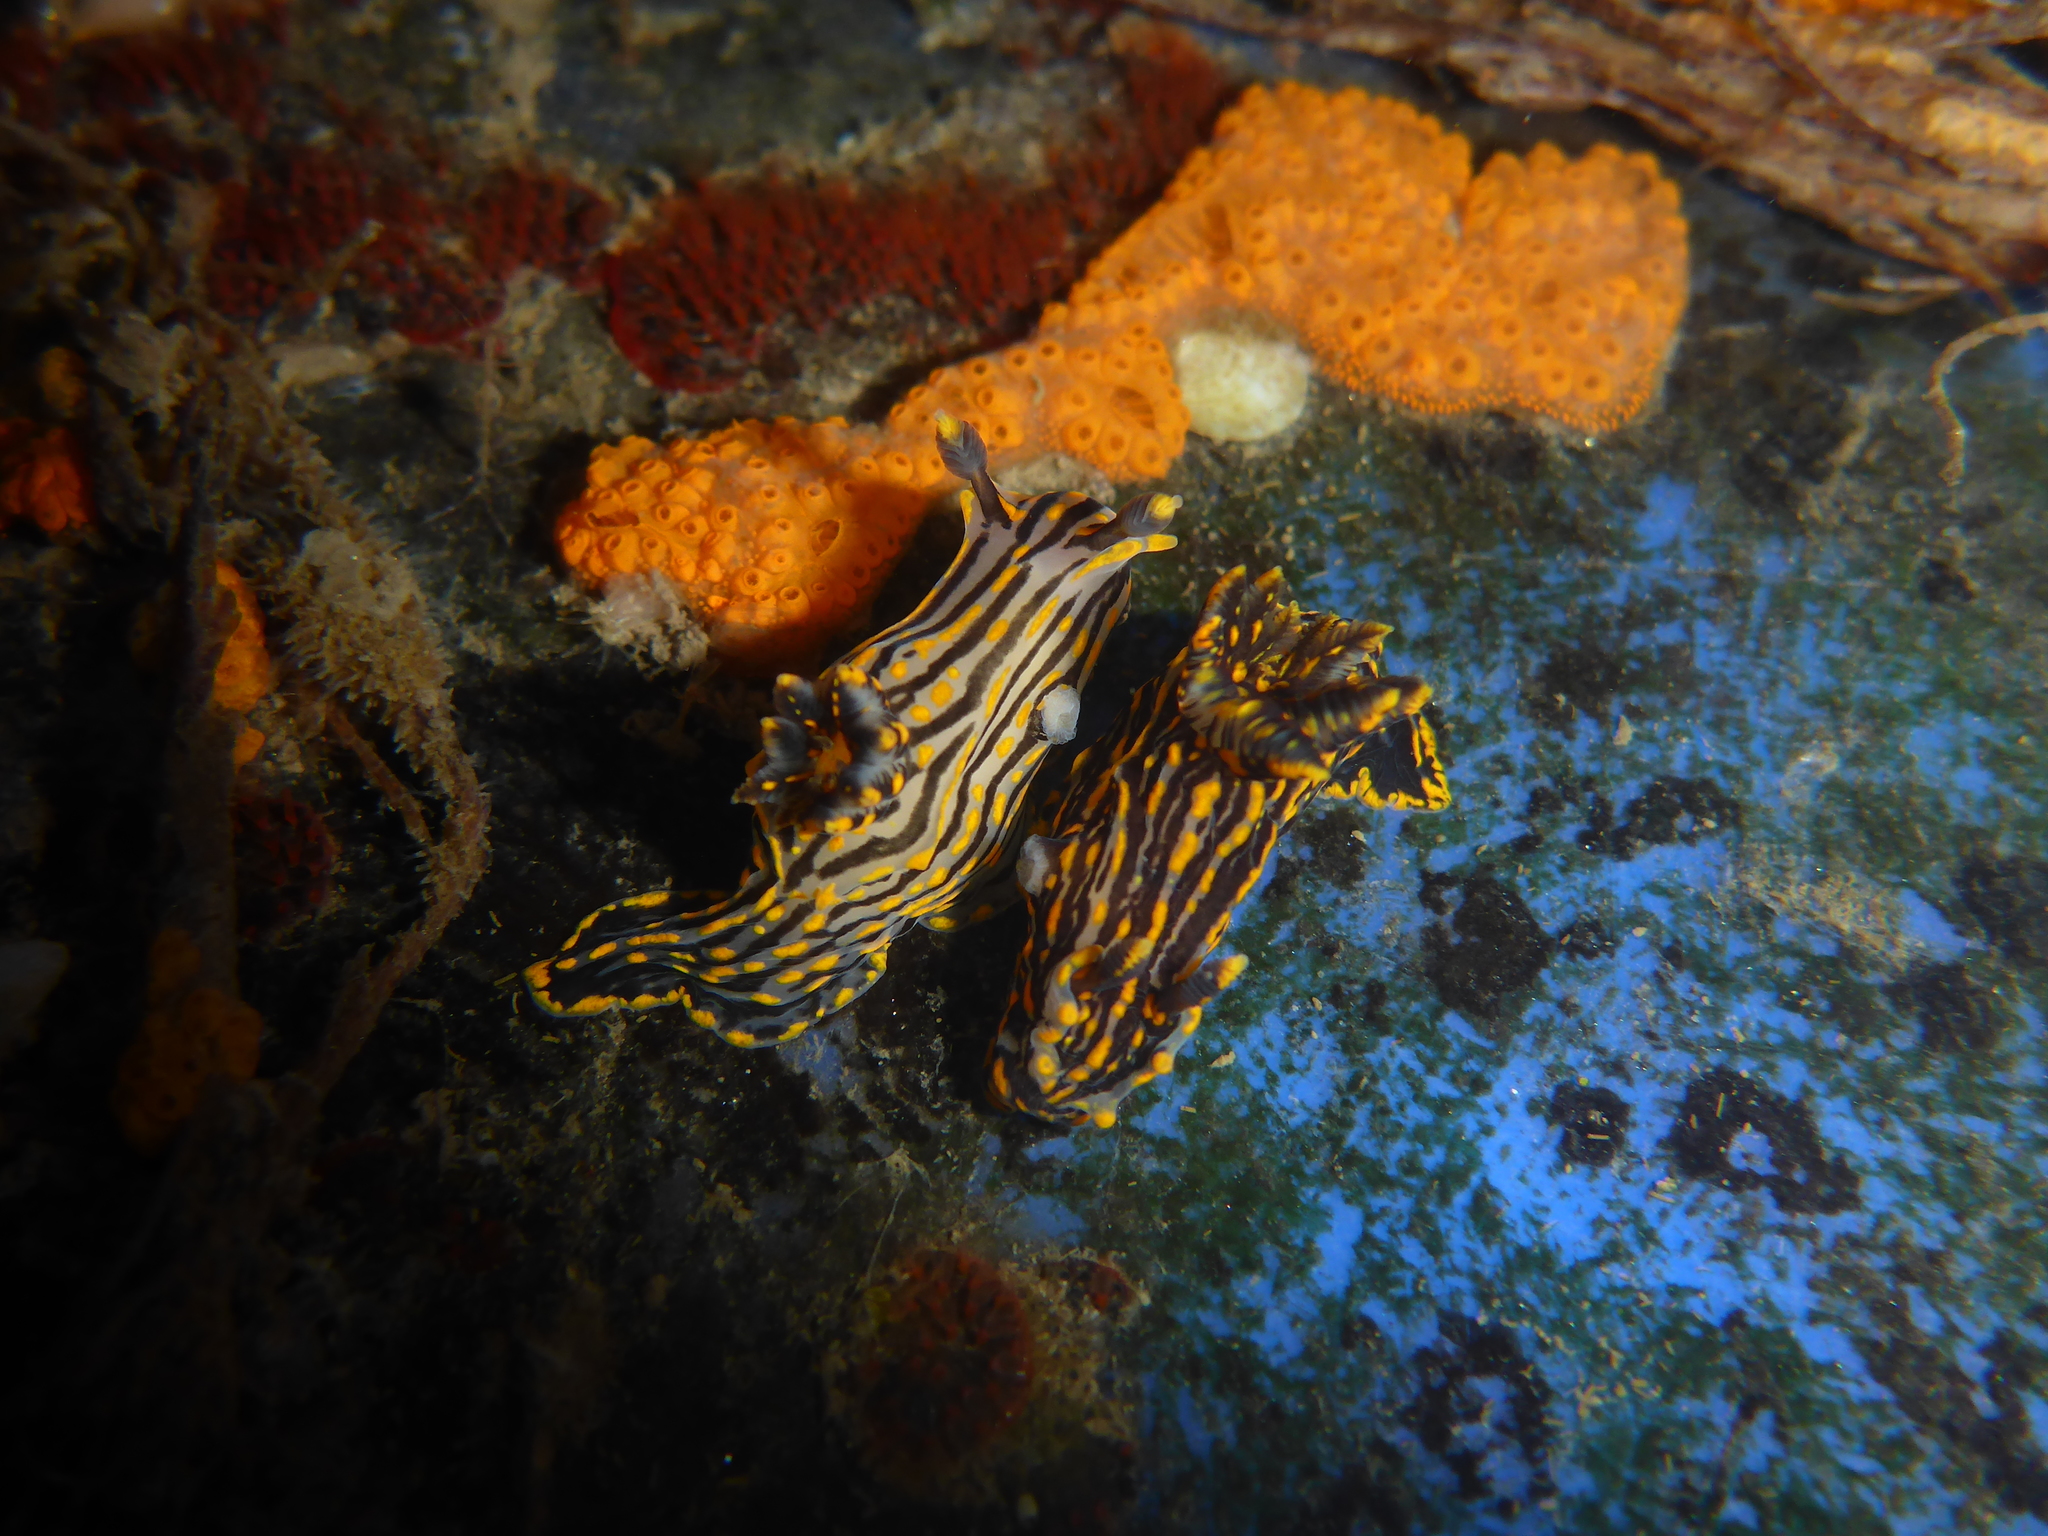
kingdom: Animalia
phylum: Mollusca
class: Gastropoda
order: Nudibranchia
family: Polyceridae
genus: Polycera
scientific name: Polycera atra
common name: Orange-spike polycera
